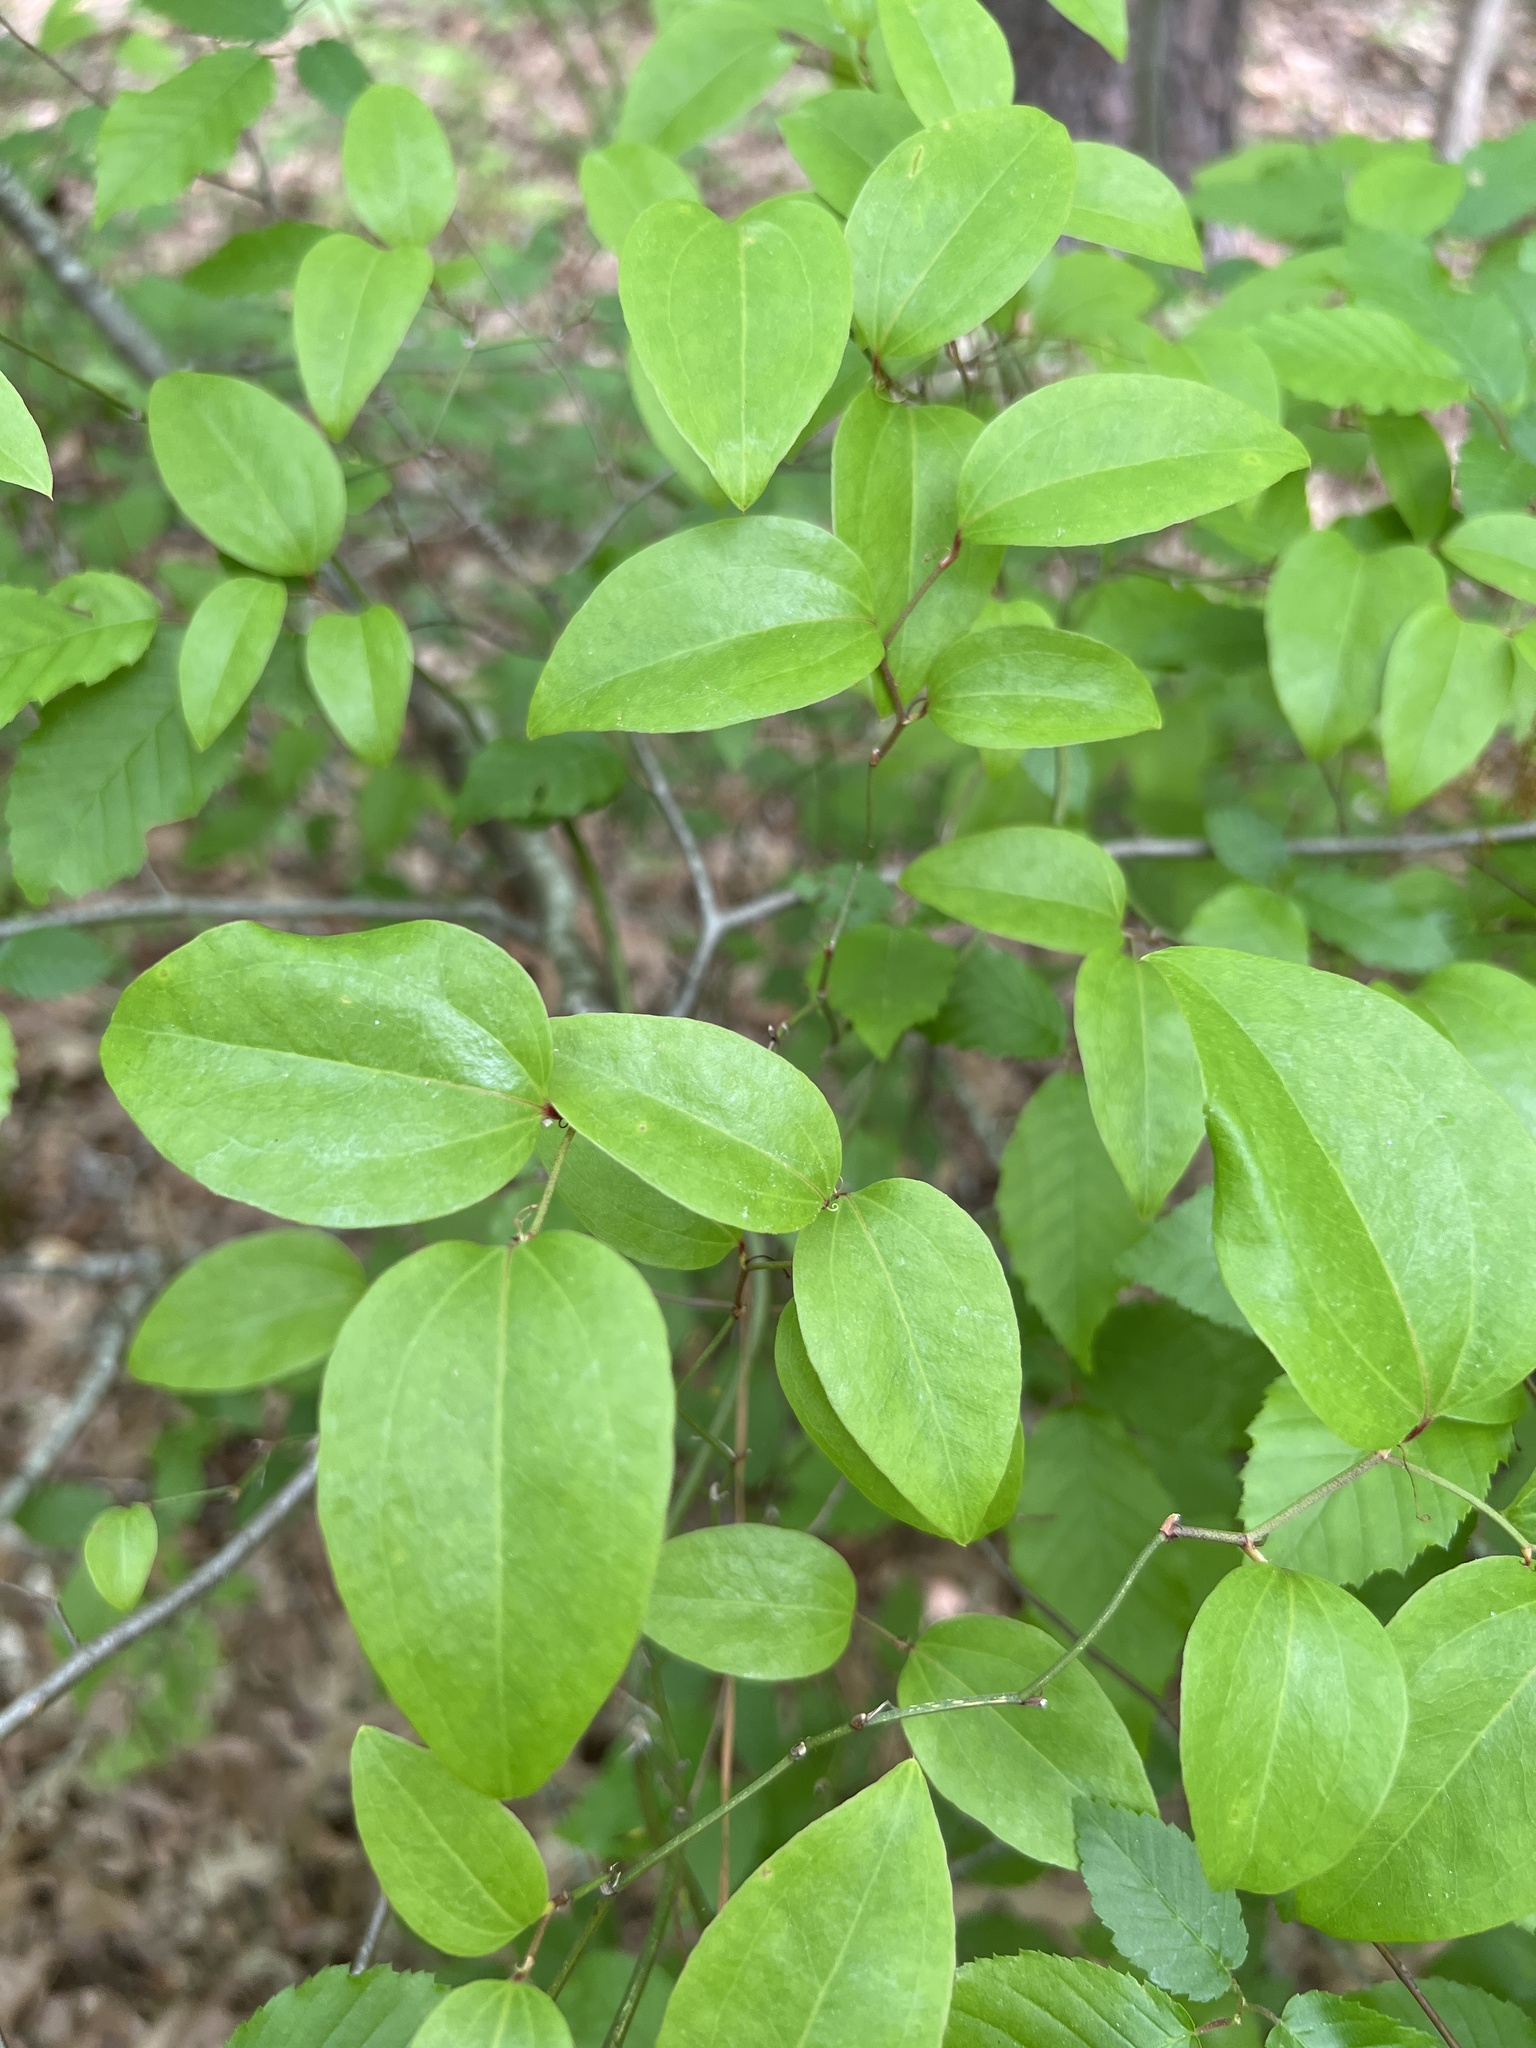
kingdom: Plantae
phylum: Tracheophyta
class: Liliopsida
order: Liliales
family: Smilacaceae
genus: Smilax
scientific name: Smilax rotundifolia
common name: Bullbriar
